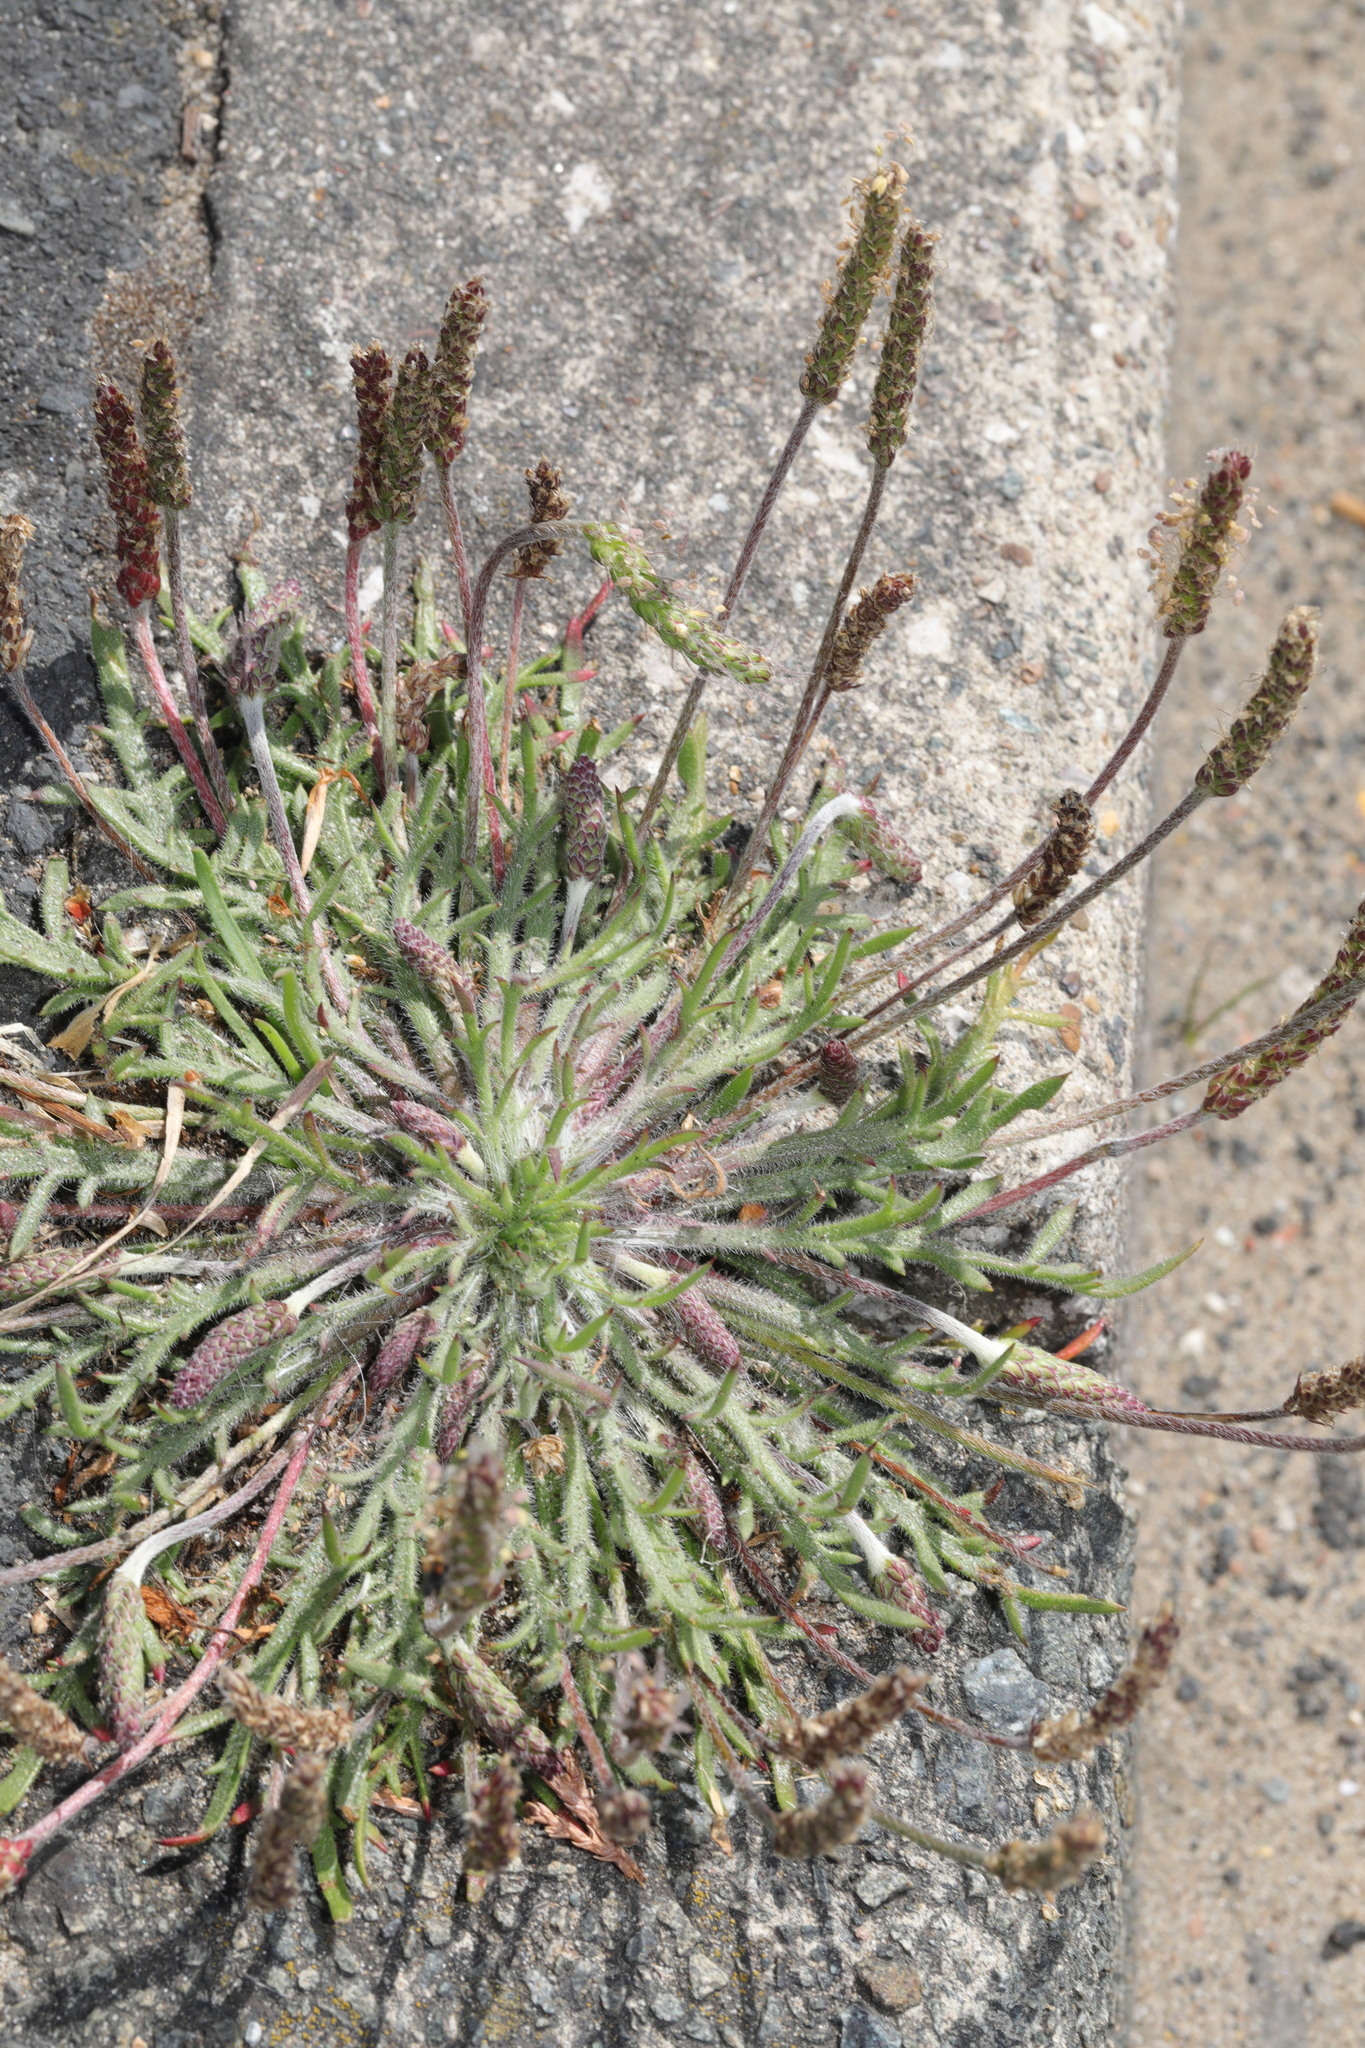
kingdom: Plantae
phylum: Tracheophyta
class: Magnoliopsida
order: Lamiales
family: Plantaginaceae
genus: Plantago
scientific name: Plantago coronopus
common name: Buck's-horn plantain
